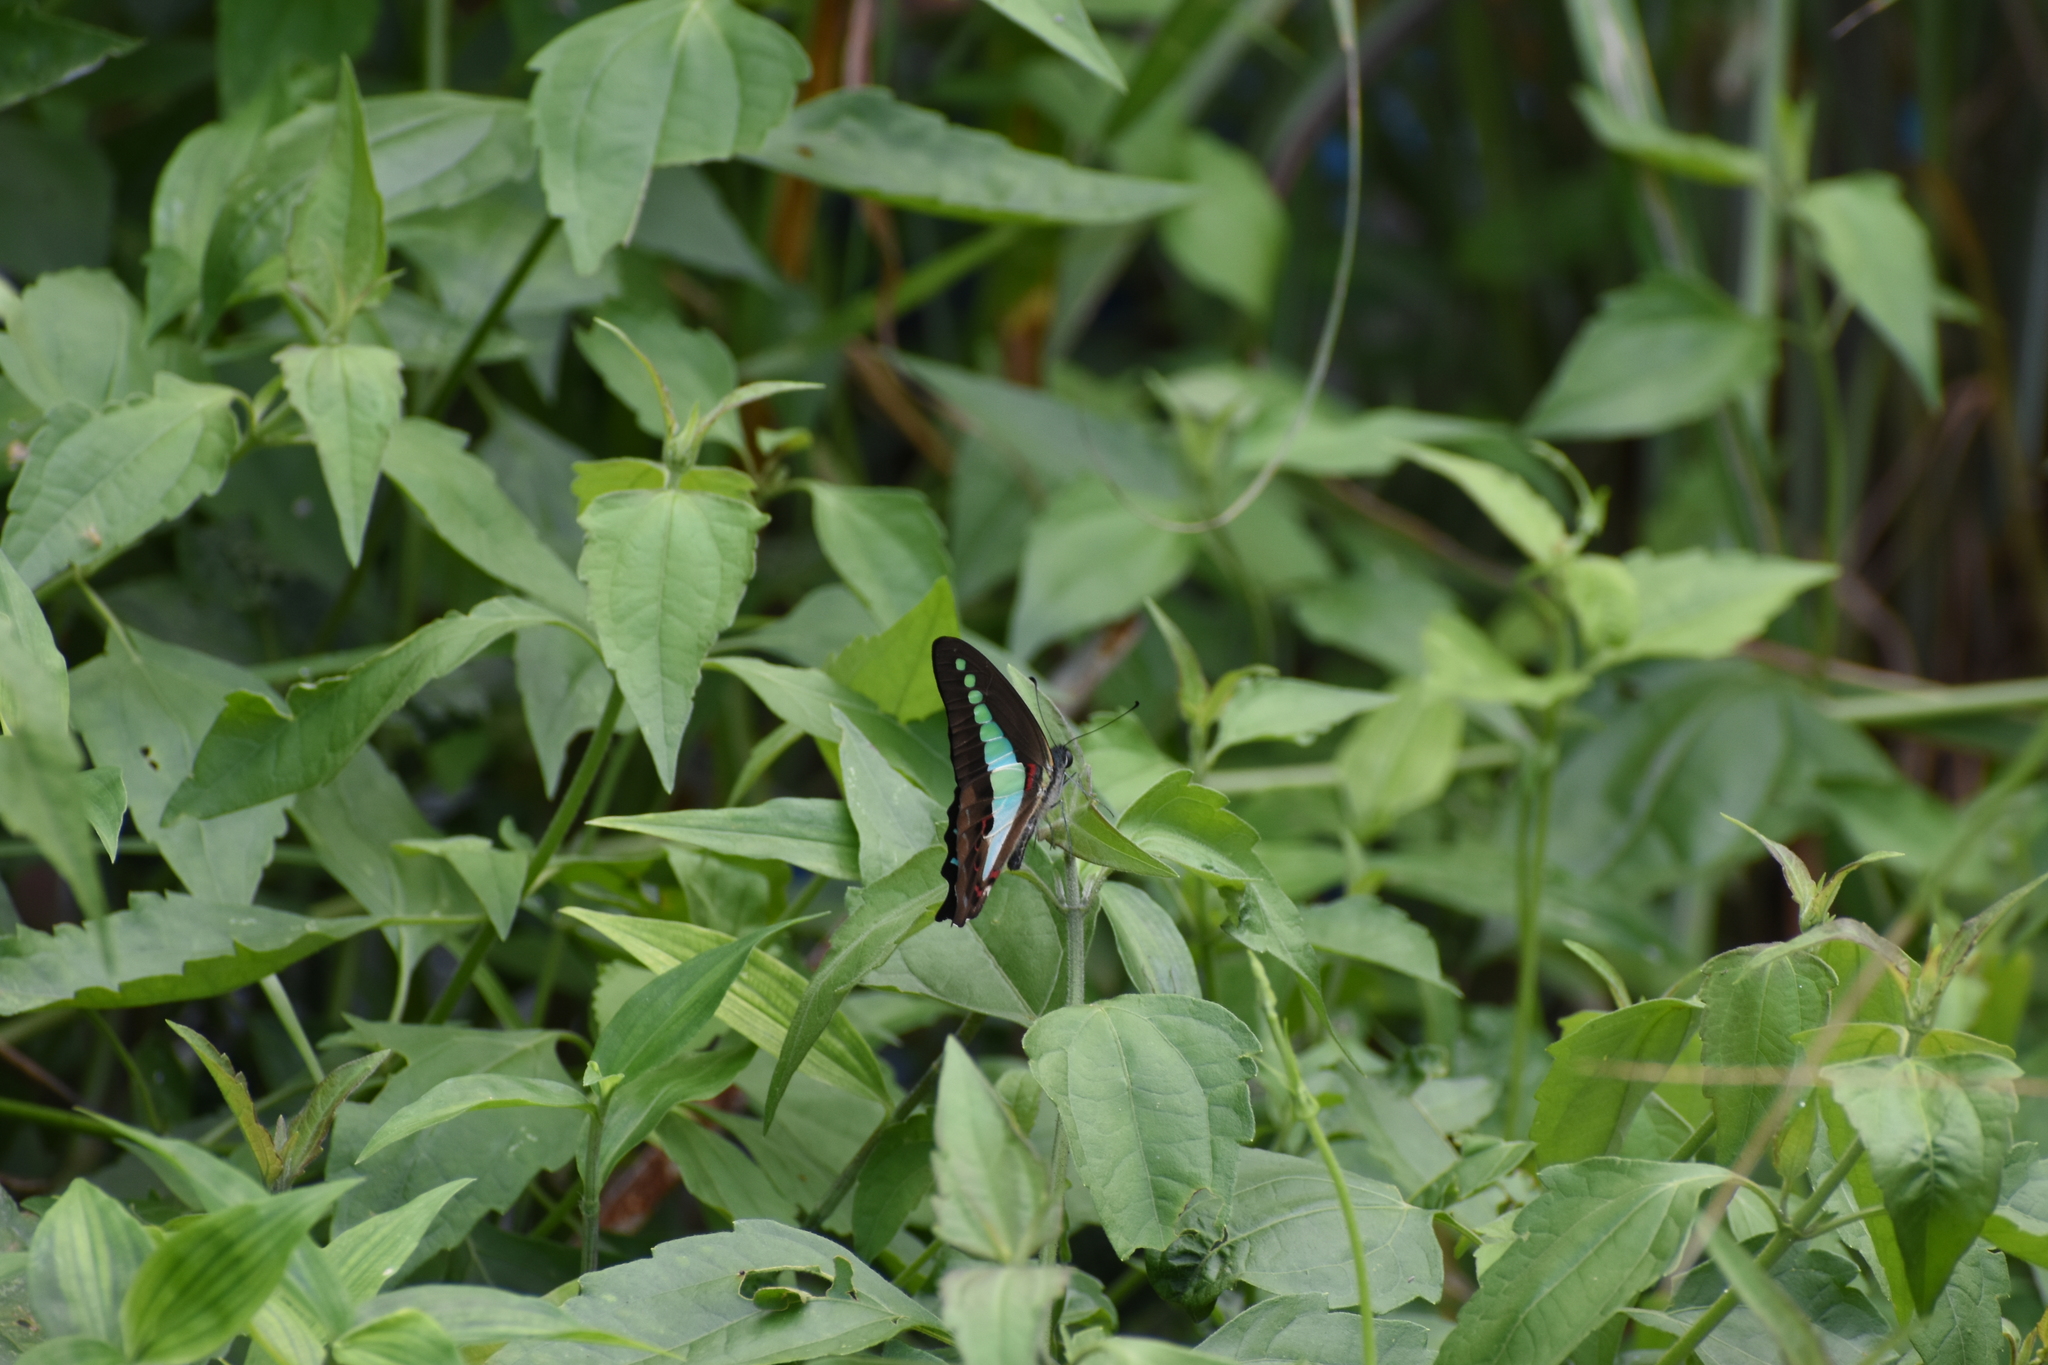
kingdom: Animalia
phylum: Arthropoda
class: Insecta
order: Lepidoptera
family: Papilionidae
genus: Graphium
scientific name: Graphium
